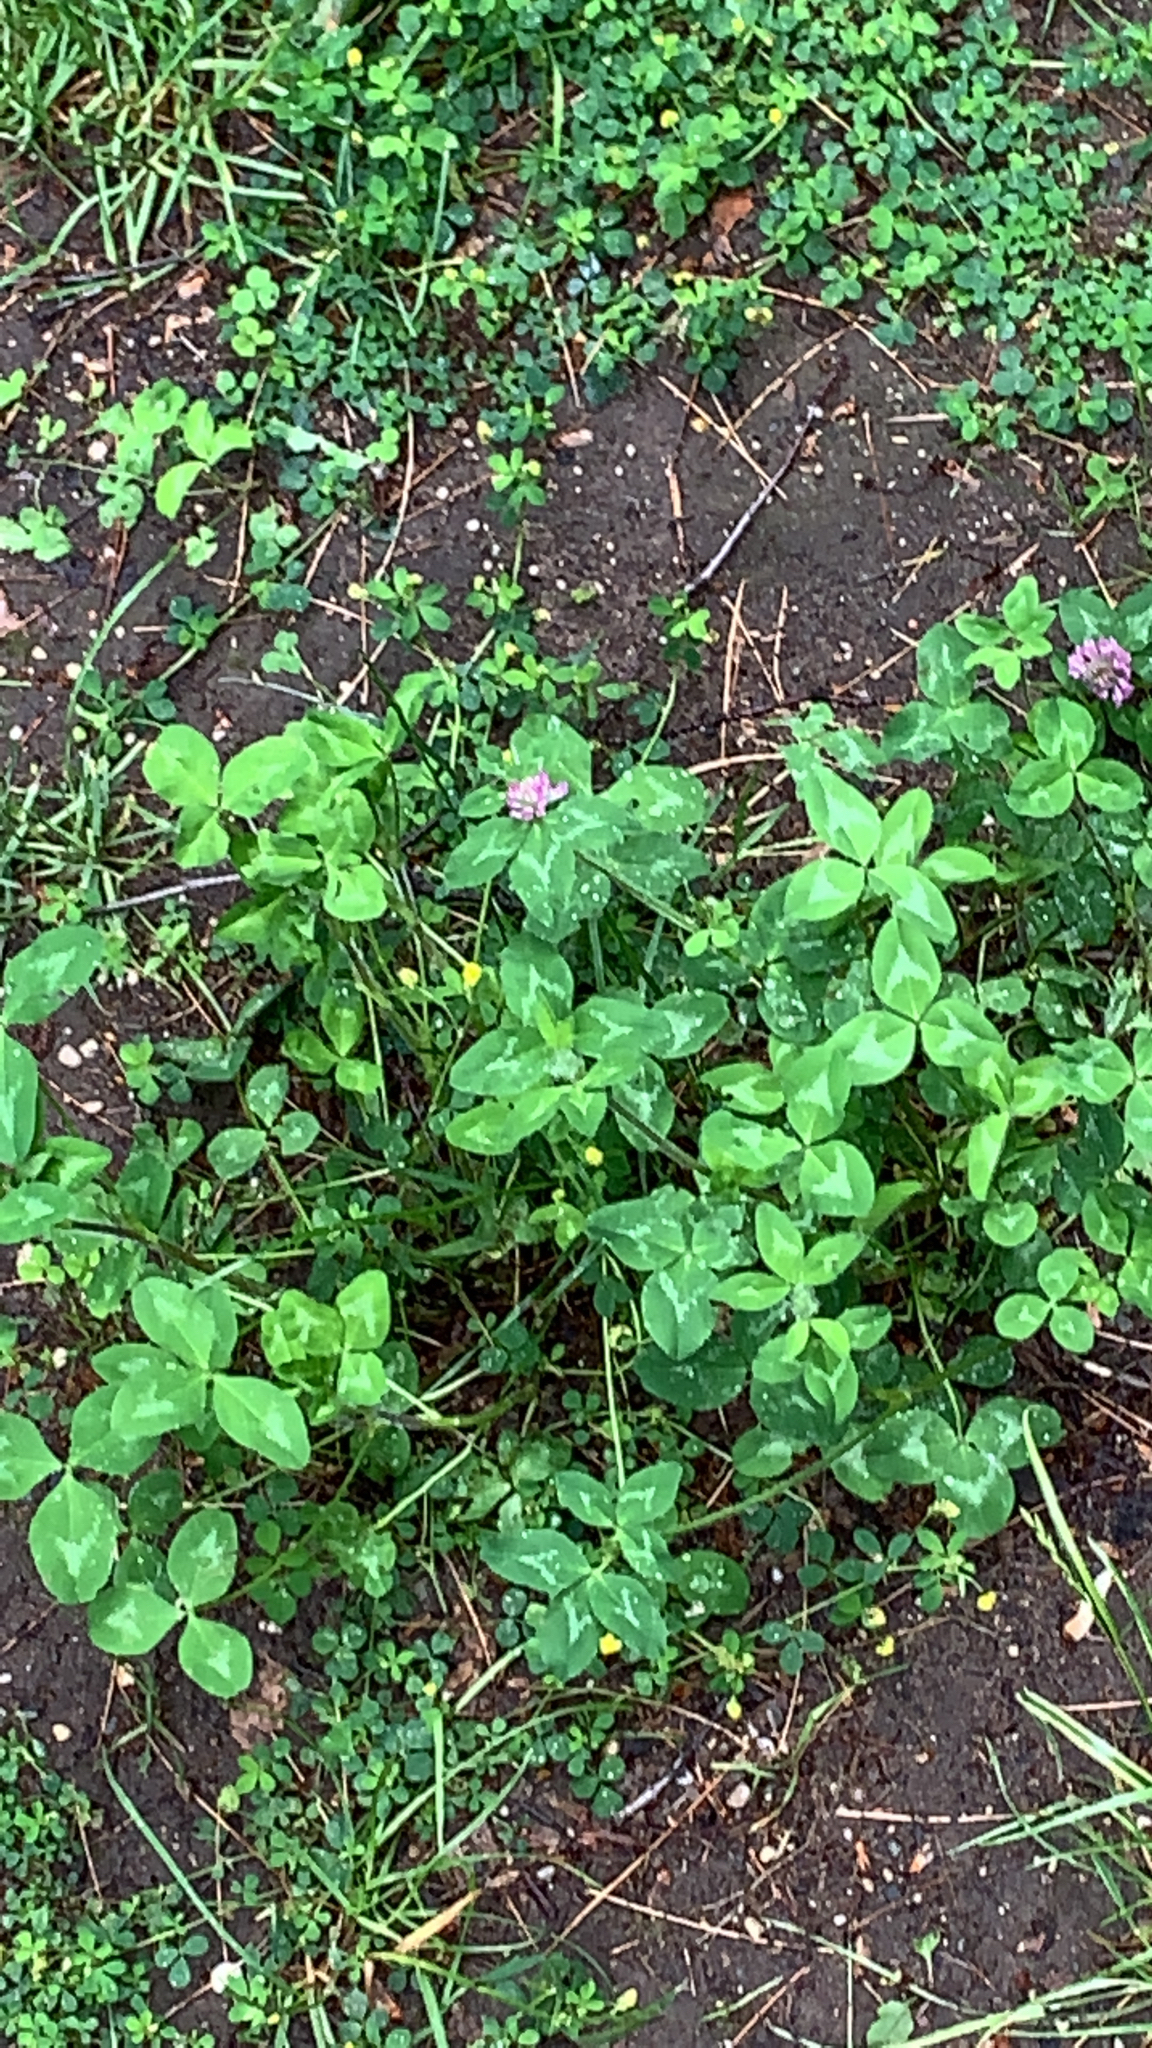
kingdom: Plantae
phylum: Tracheophyta
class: Magnoliopsida
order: Fabales
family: Fabaceae
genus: Trifolium
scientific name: Trifolium pratense
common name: Red clover
